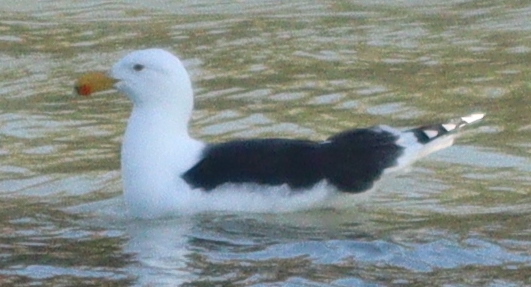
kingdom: Animalia
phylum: Chordata
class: Aves
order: Charadriiformes
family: Laridae
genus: Larus
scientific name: Larus marinus
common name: Great black-backed gull
